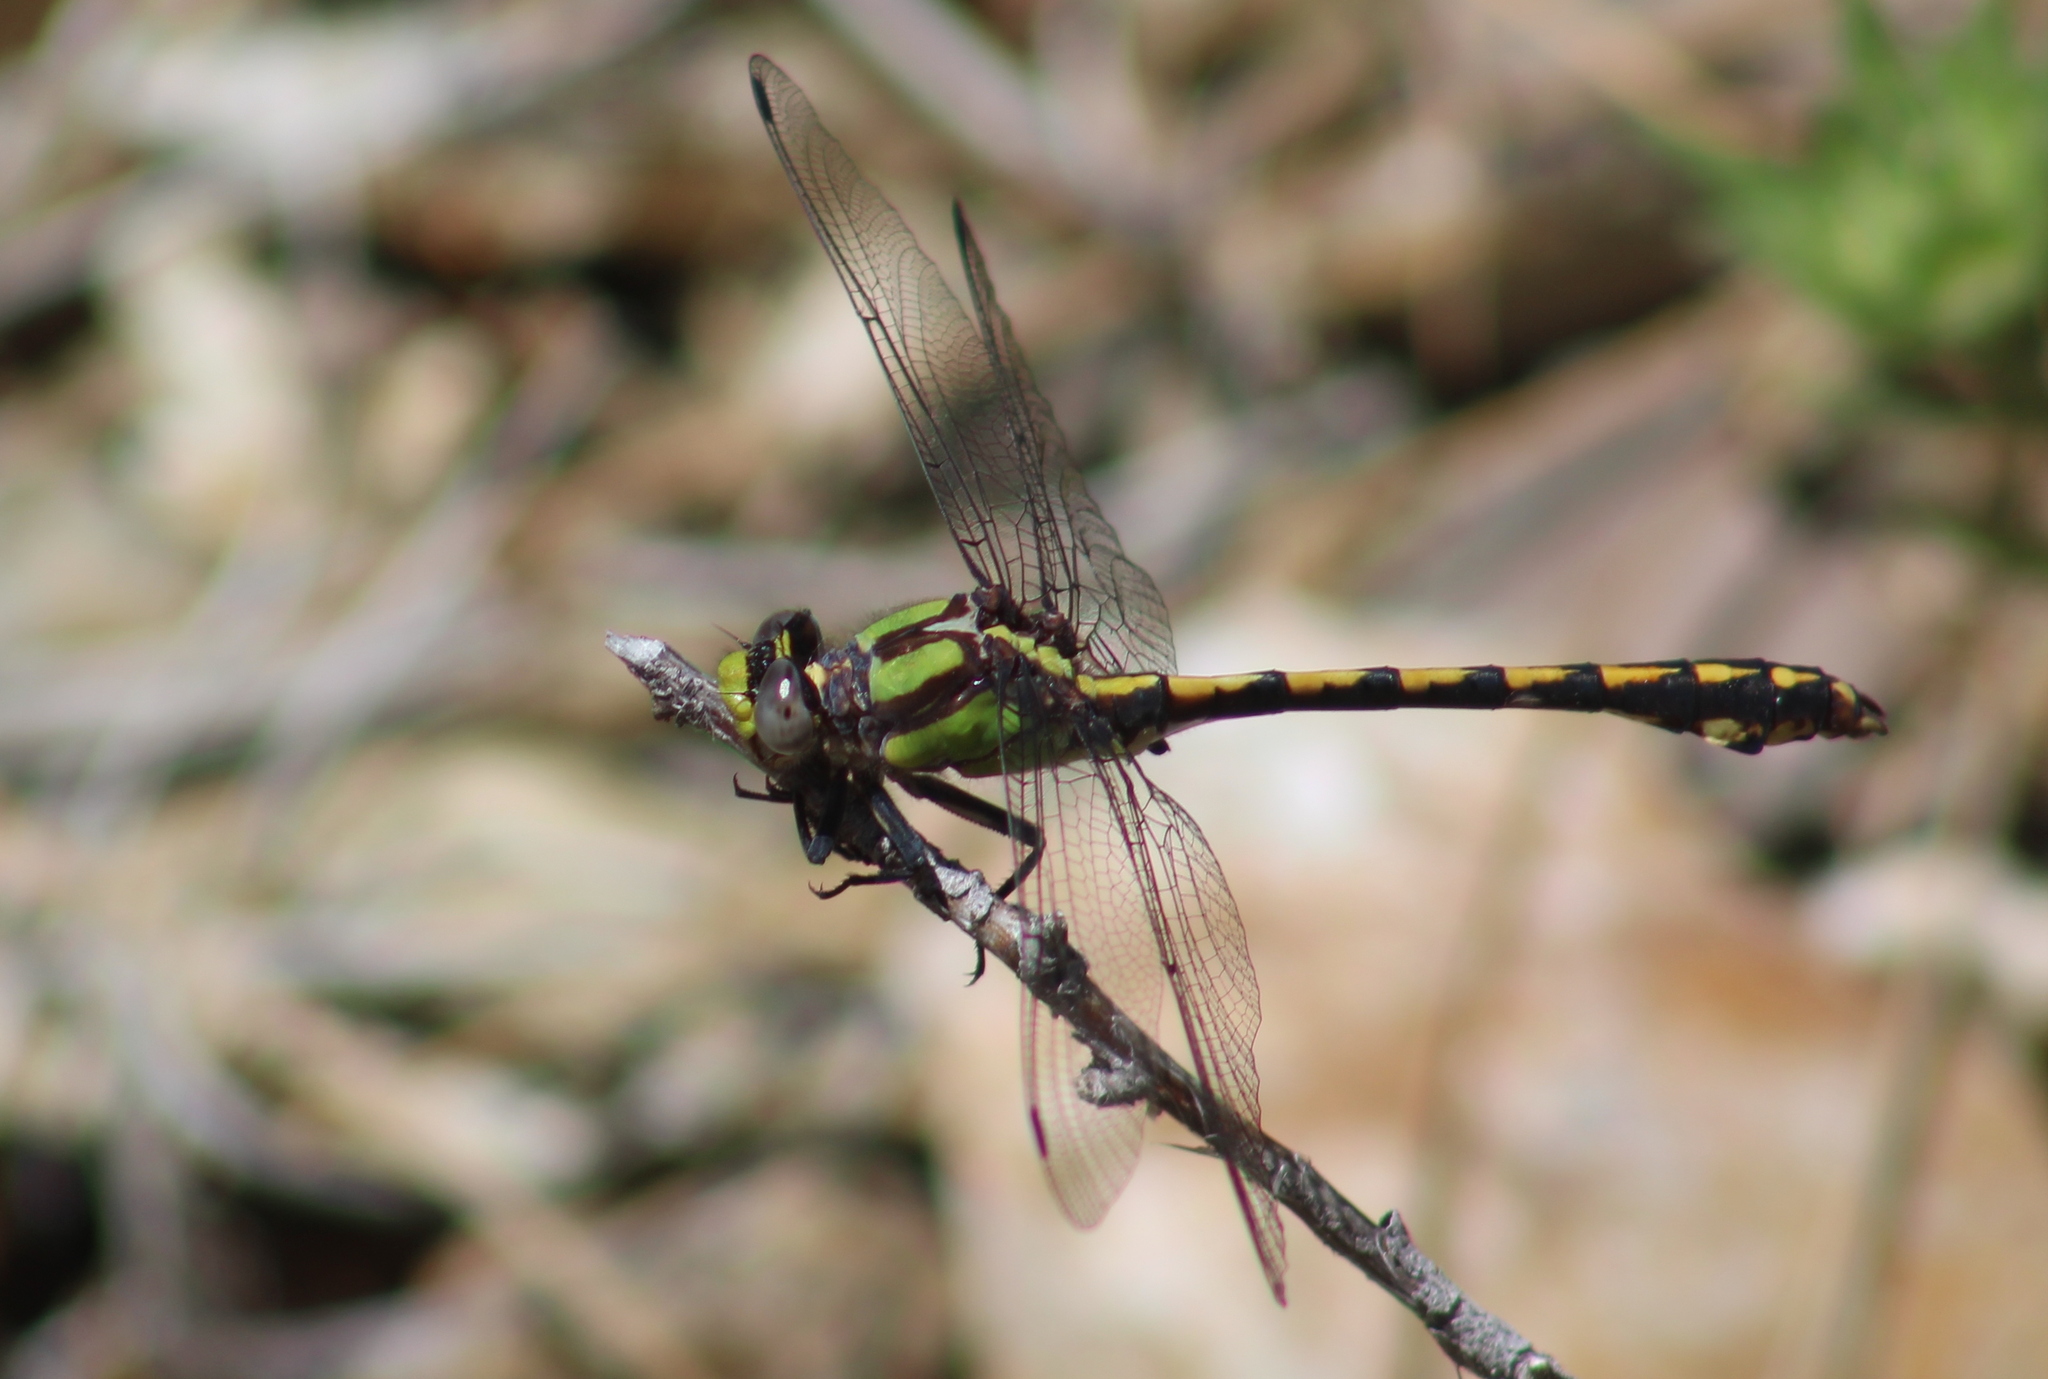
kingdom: Animalia
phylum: Arthropoda
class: Insecta
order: Odonata
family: Gomphidae
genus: Ophiogomphus
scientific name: Ophiogomphus bison
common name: Bison snaketail
